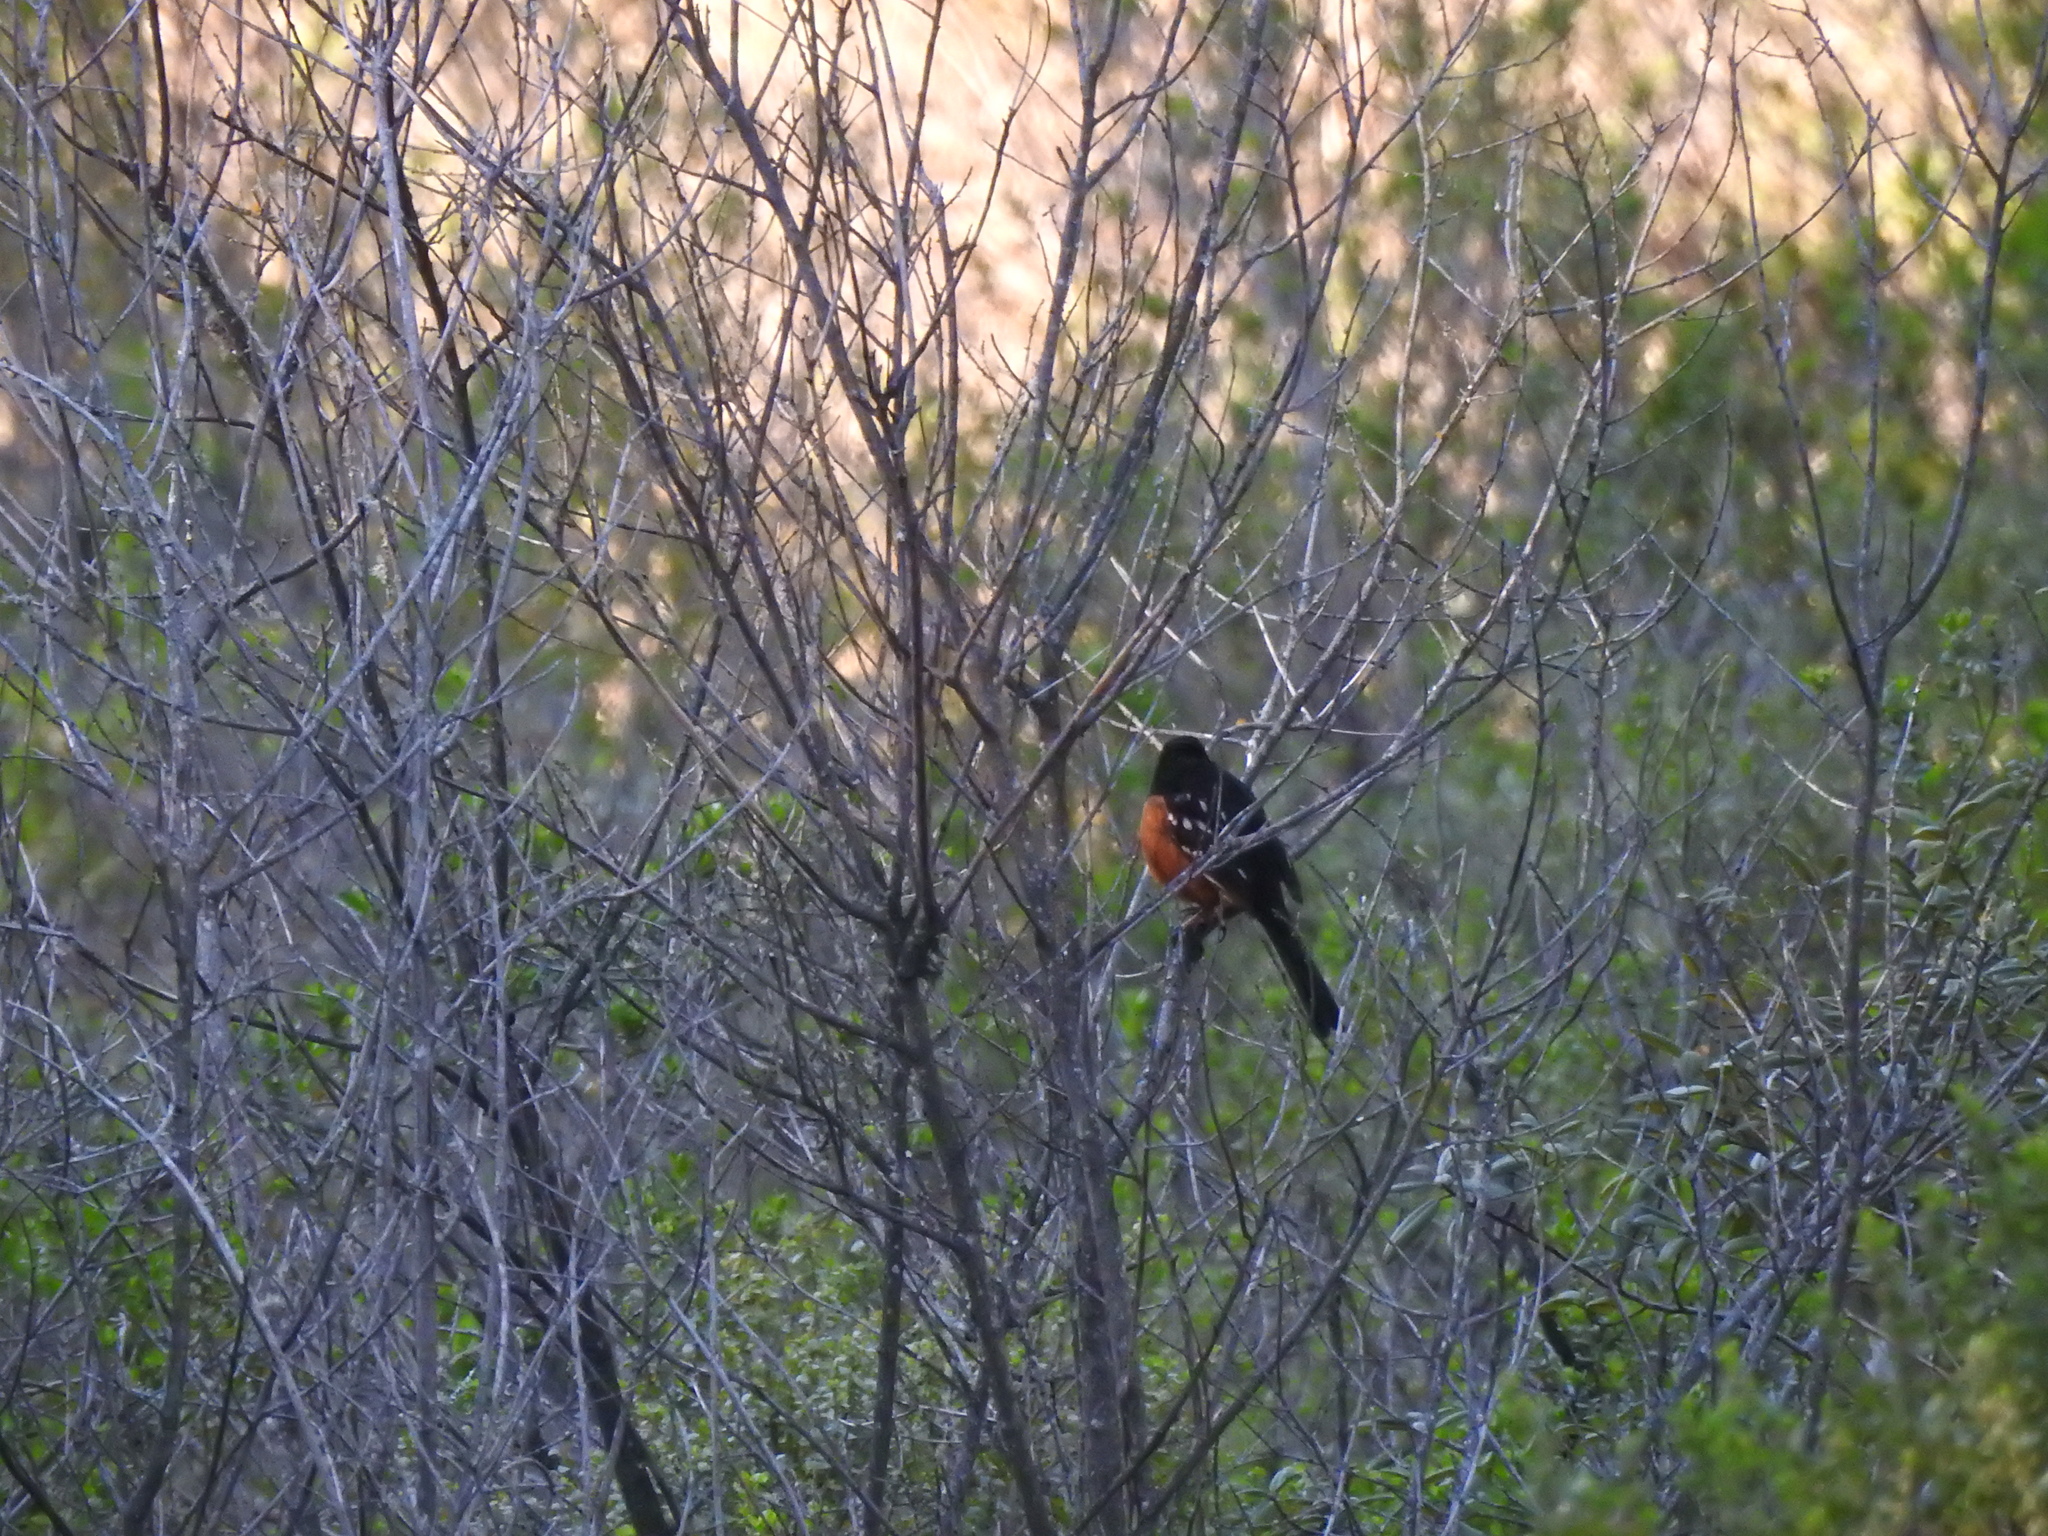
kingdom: Animalia
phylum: Chordata
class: Aves
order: Passeriformes
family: Passerellidae
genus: Pipilo
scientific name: Pipilo maculatus
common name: Spotted towhee
